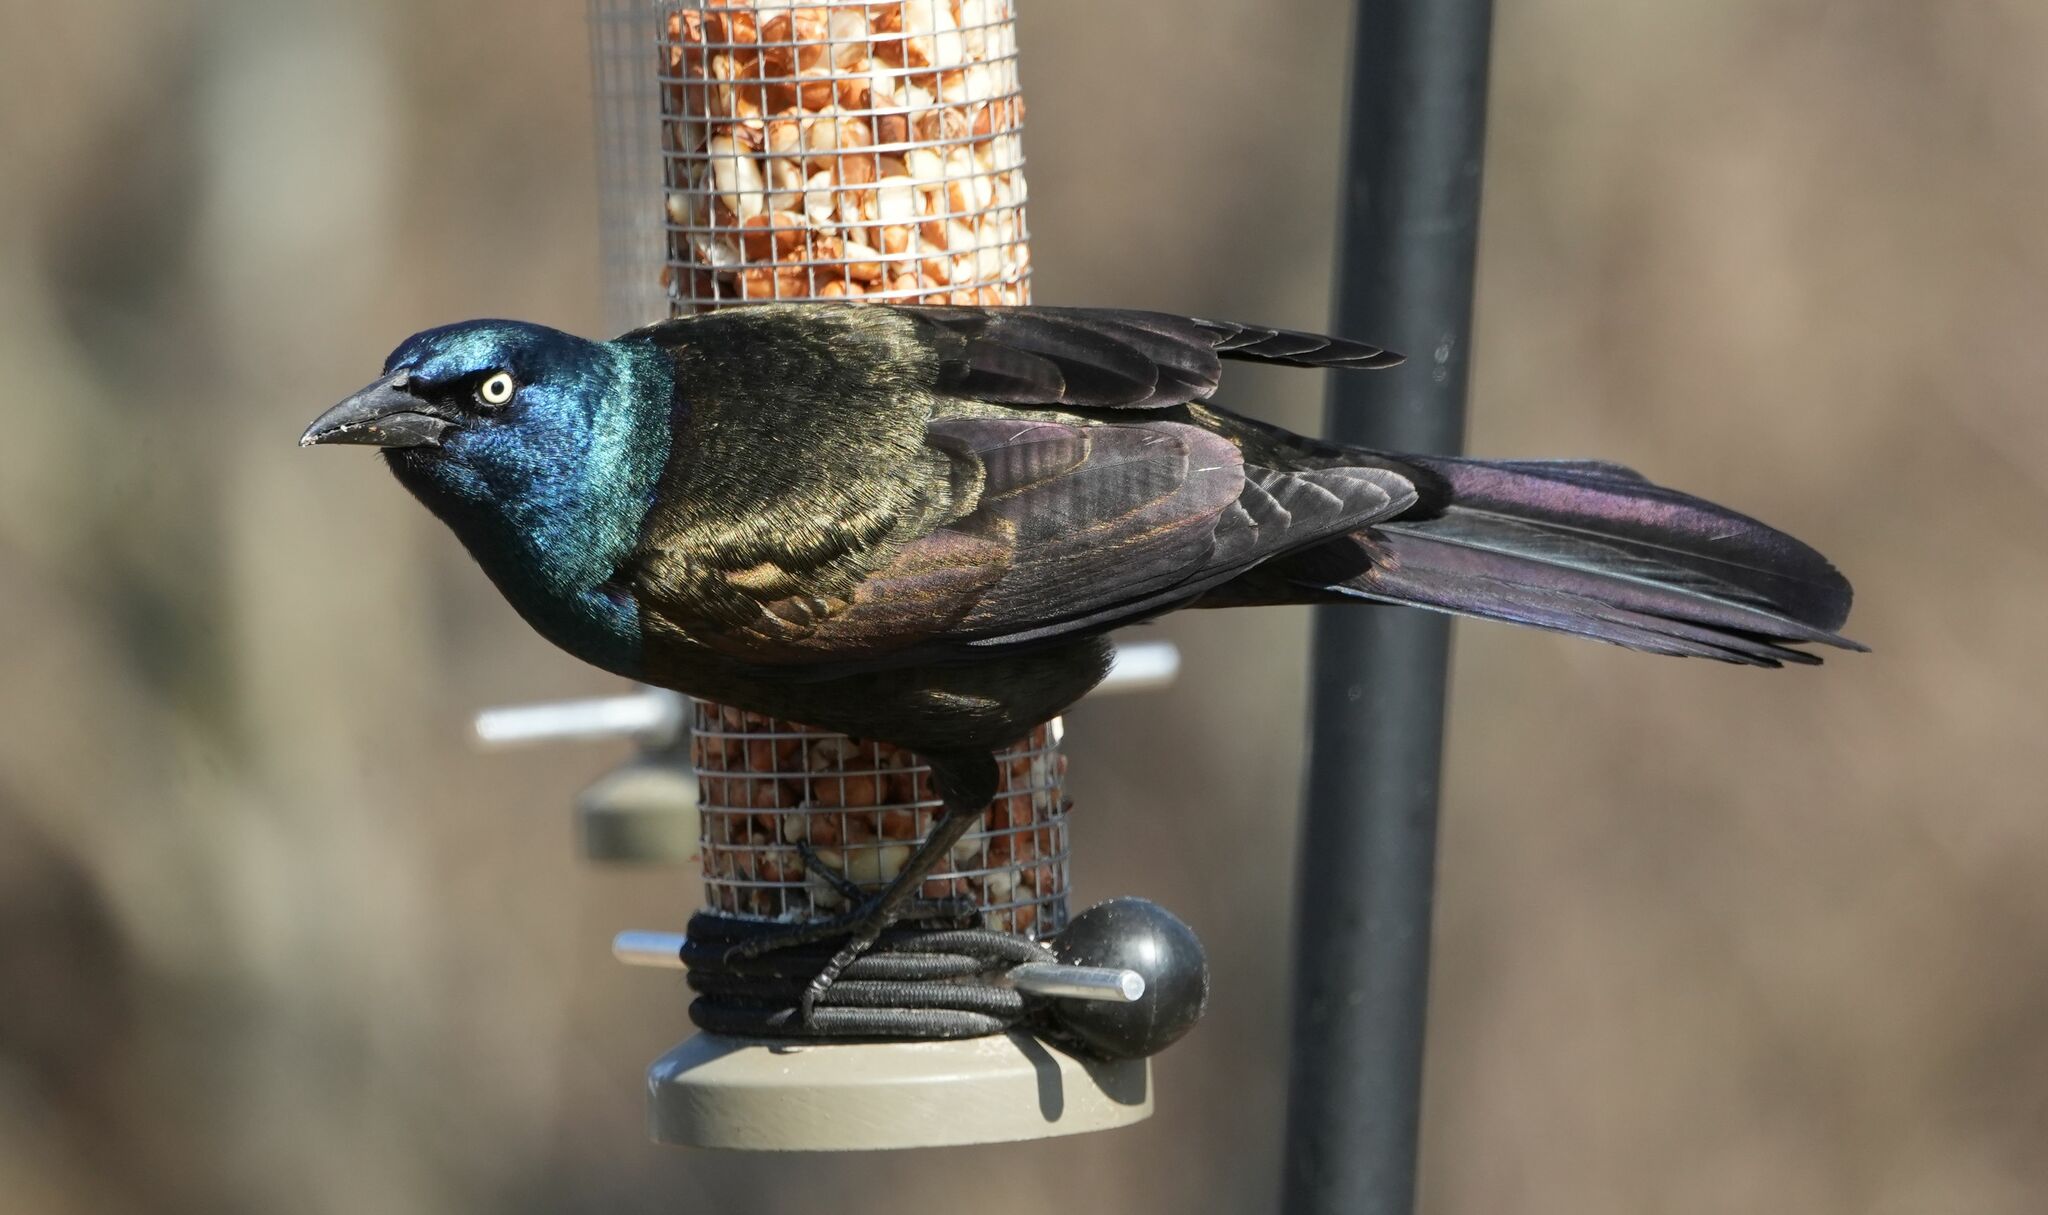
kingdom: Animalia
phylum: Chordata
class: Aves
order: Passeriformes
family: Icteridae
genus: Quiscalus
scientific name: Quiscalus quiscula
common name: Common grackle
